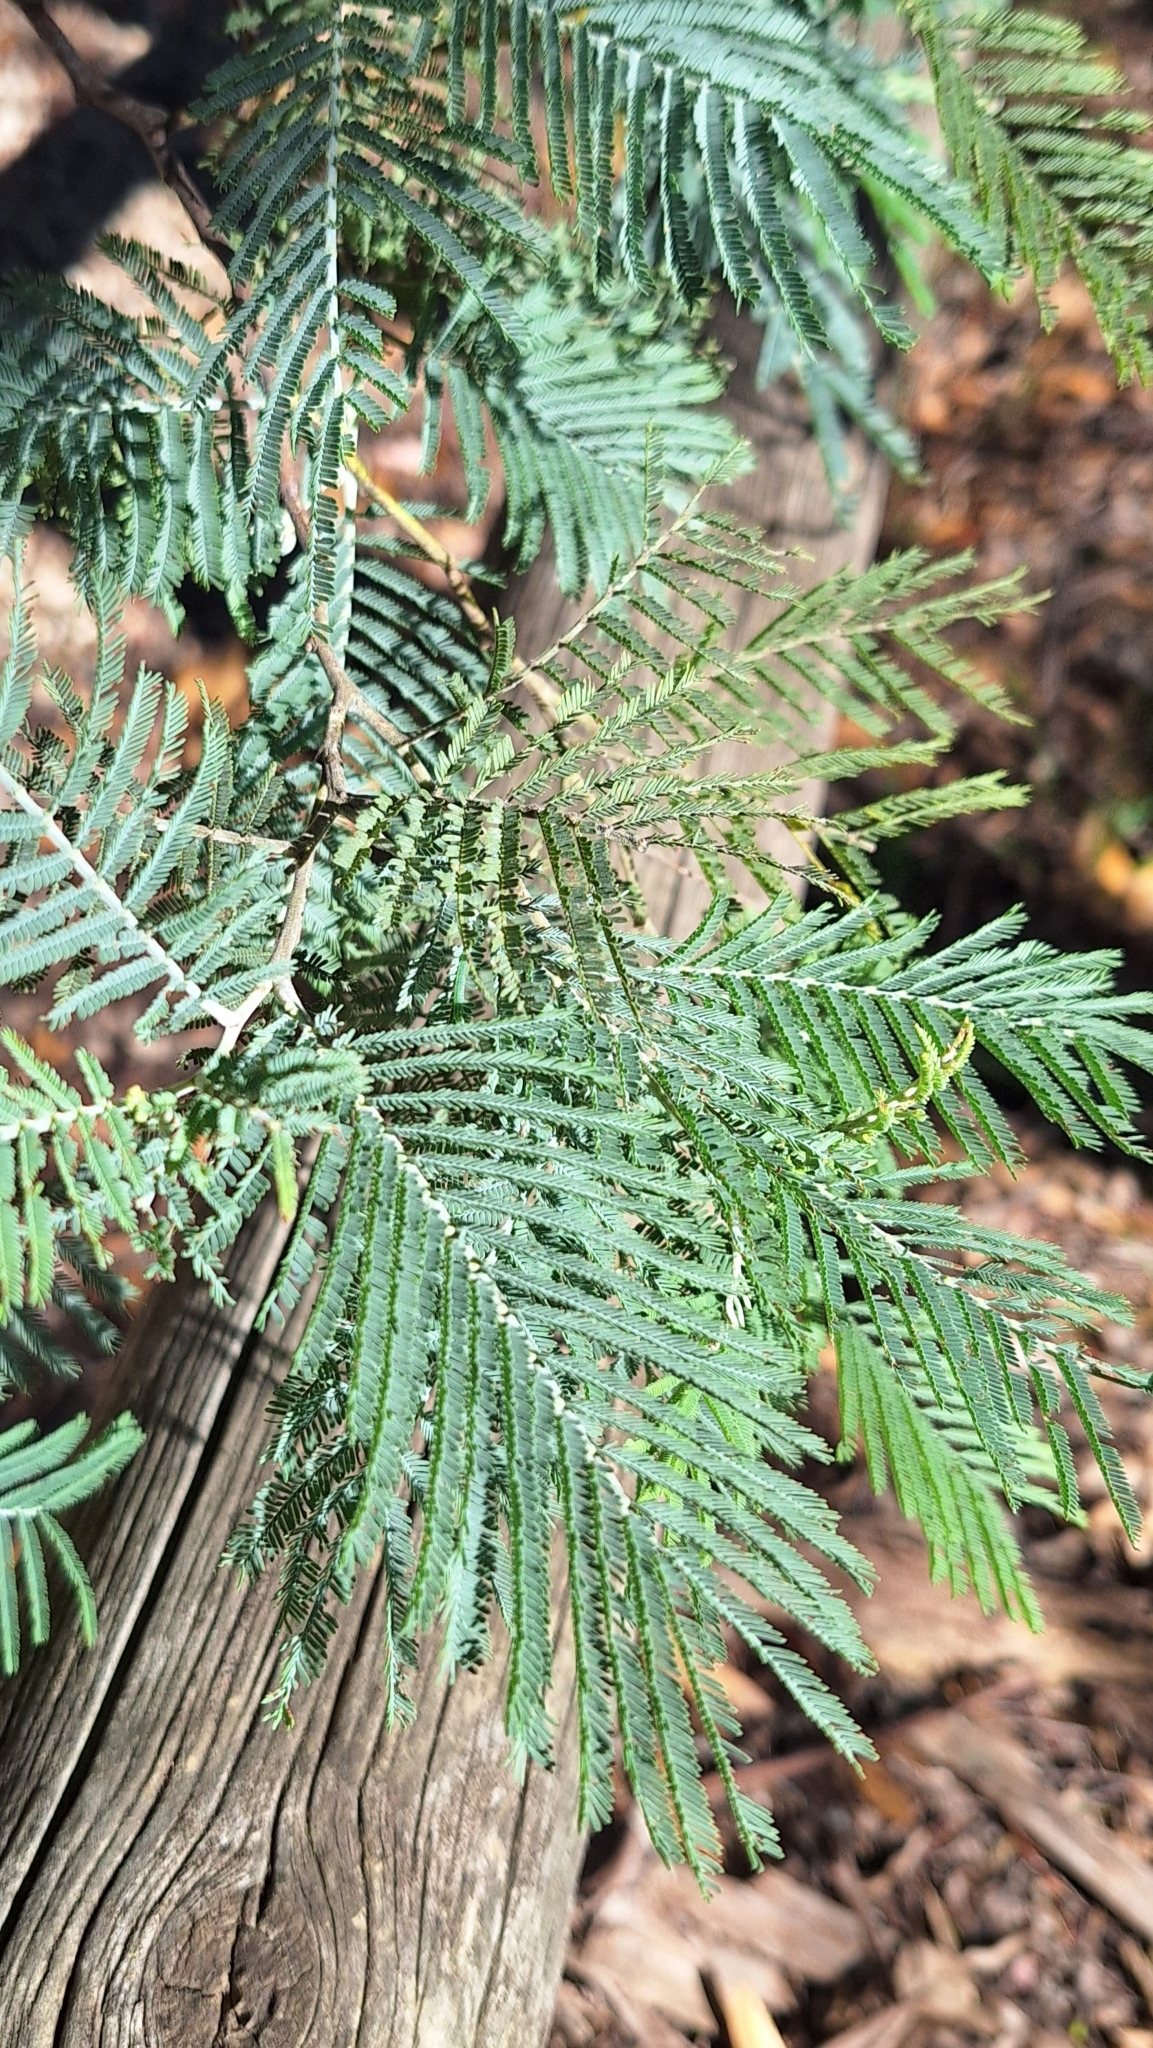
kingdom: Plantae
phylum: Tracheophyta
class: Magnoliopsida
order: Fabales
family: Fabaceae
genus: Acacia
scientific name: Acacia dealbata
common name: Silver wattle
